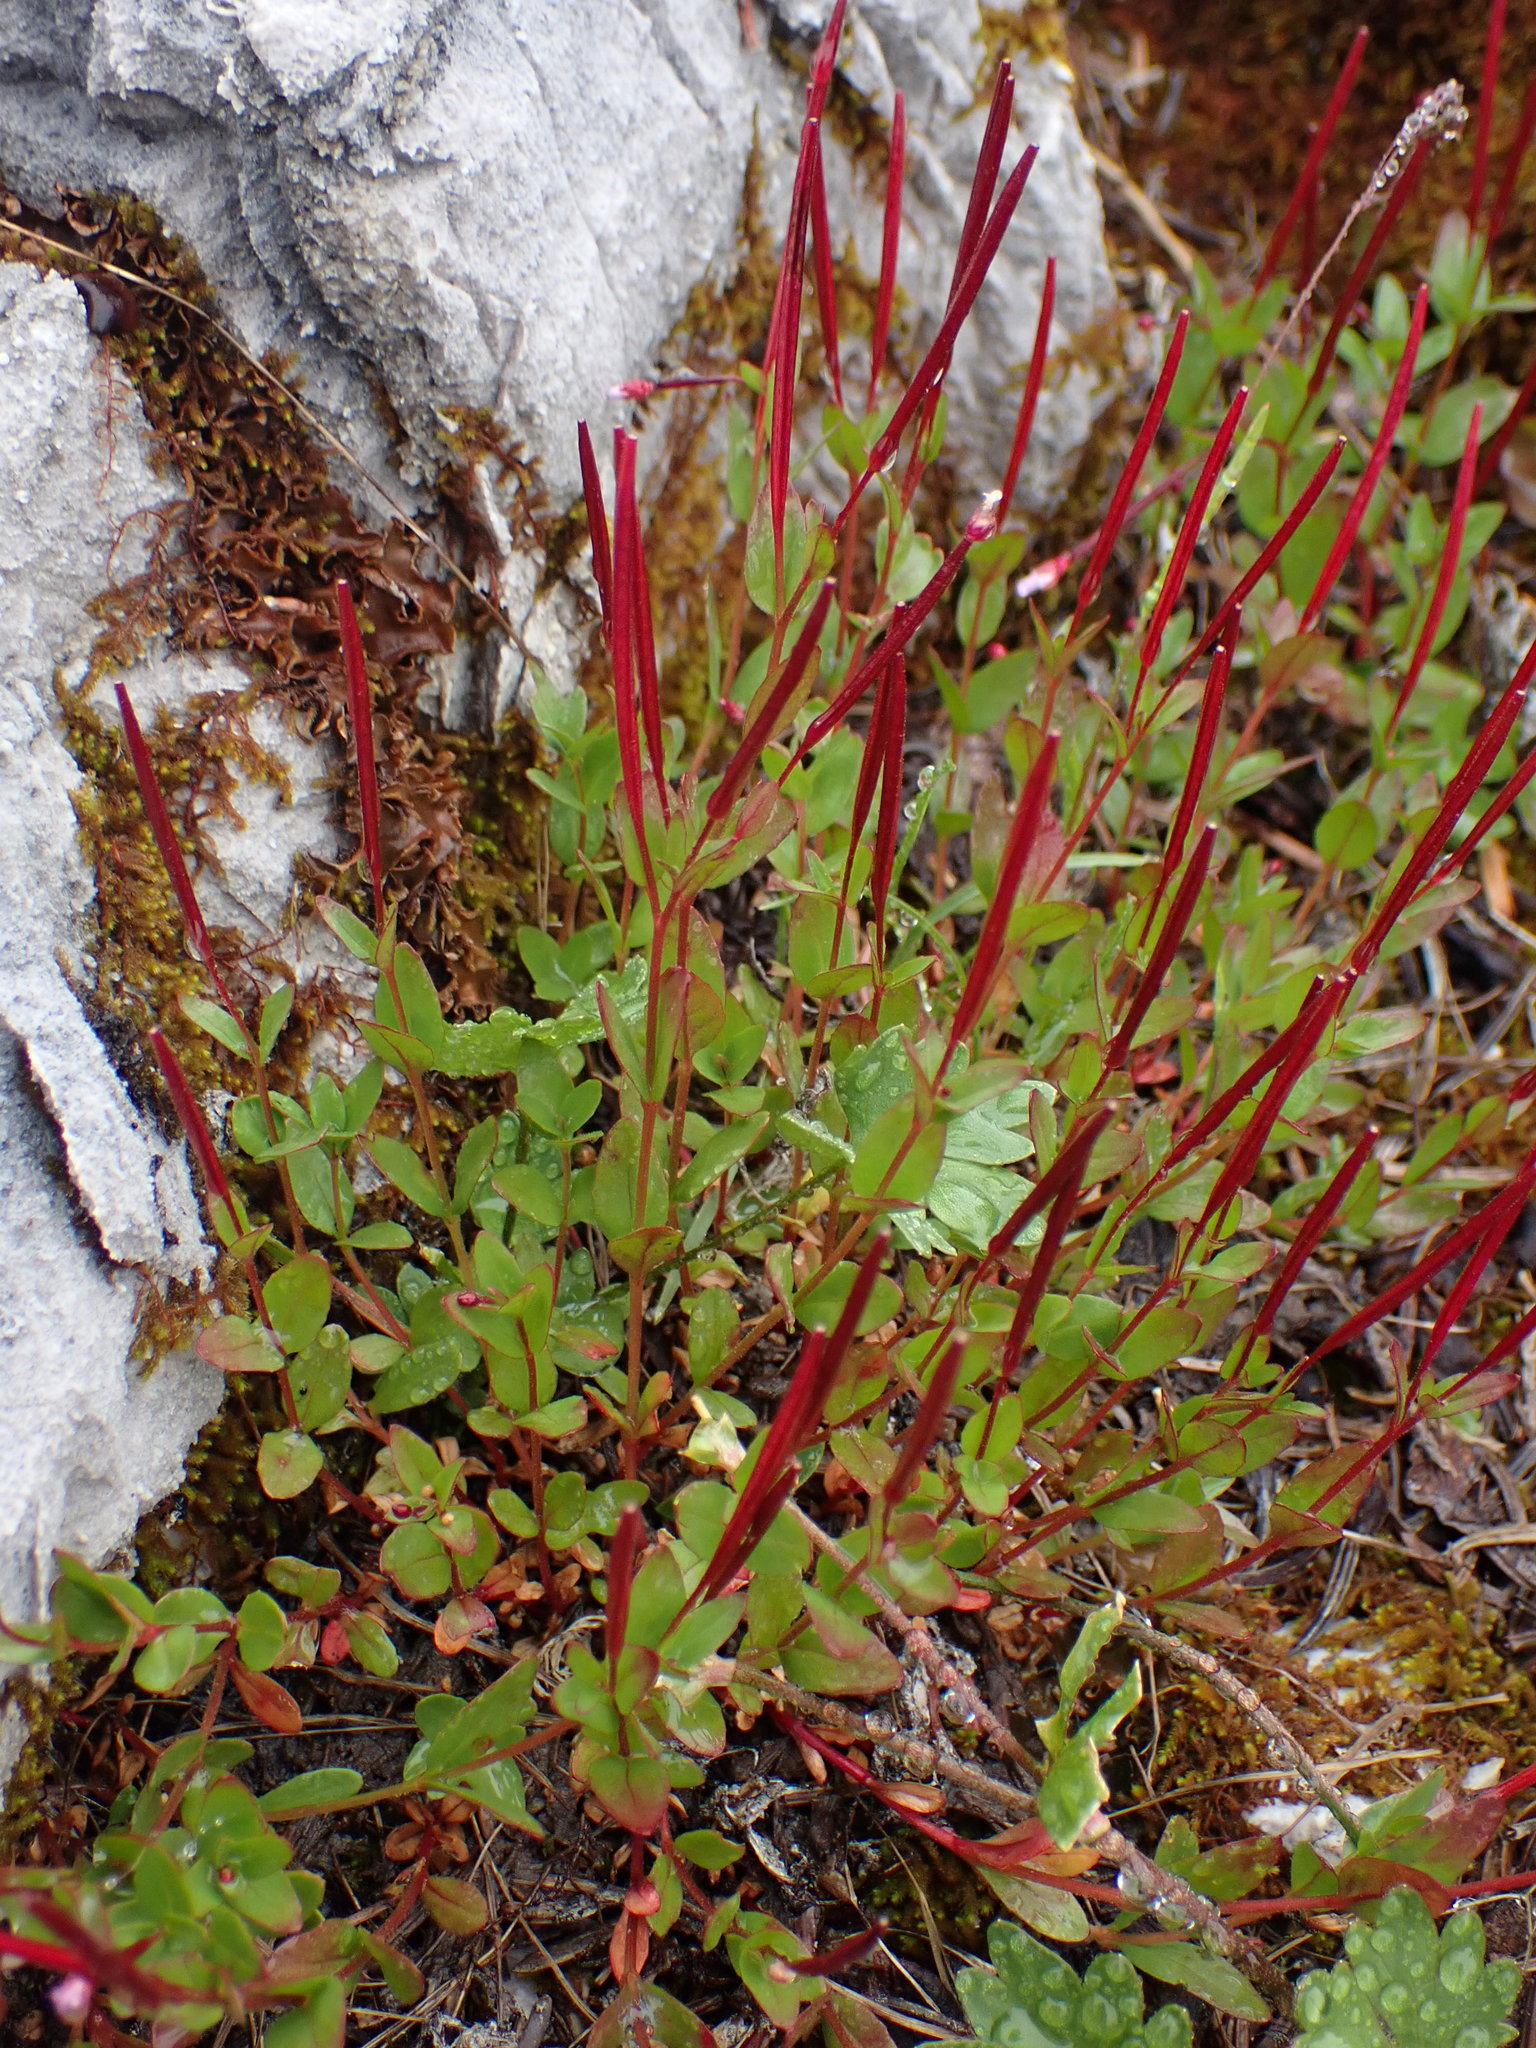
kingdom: Plantae
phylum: Tracheophyta
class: Magnoliopsida
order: Myrtales
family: Onagraceae
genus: Epilobium
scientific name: Epilobium anagallidifolium
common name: Alpine willowherb
